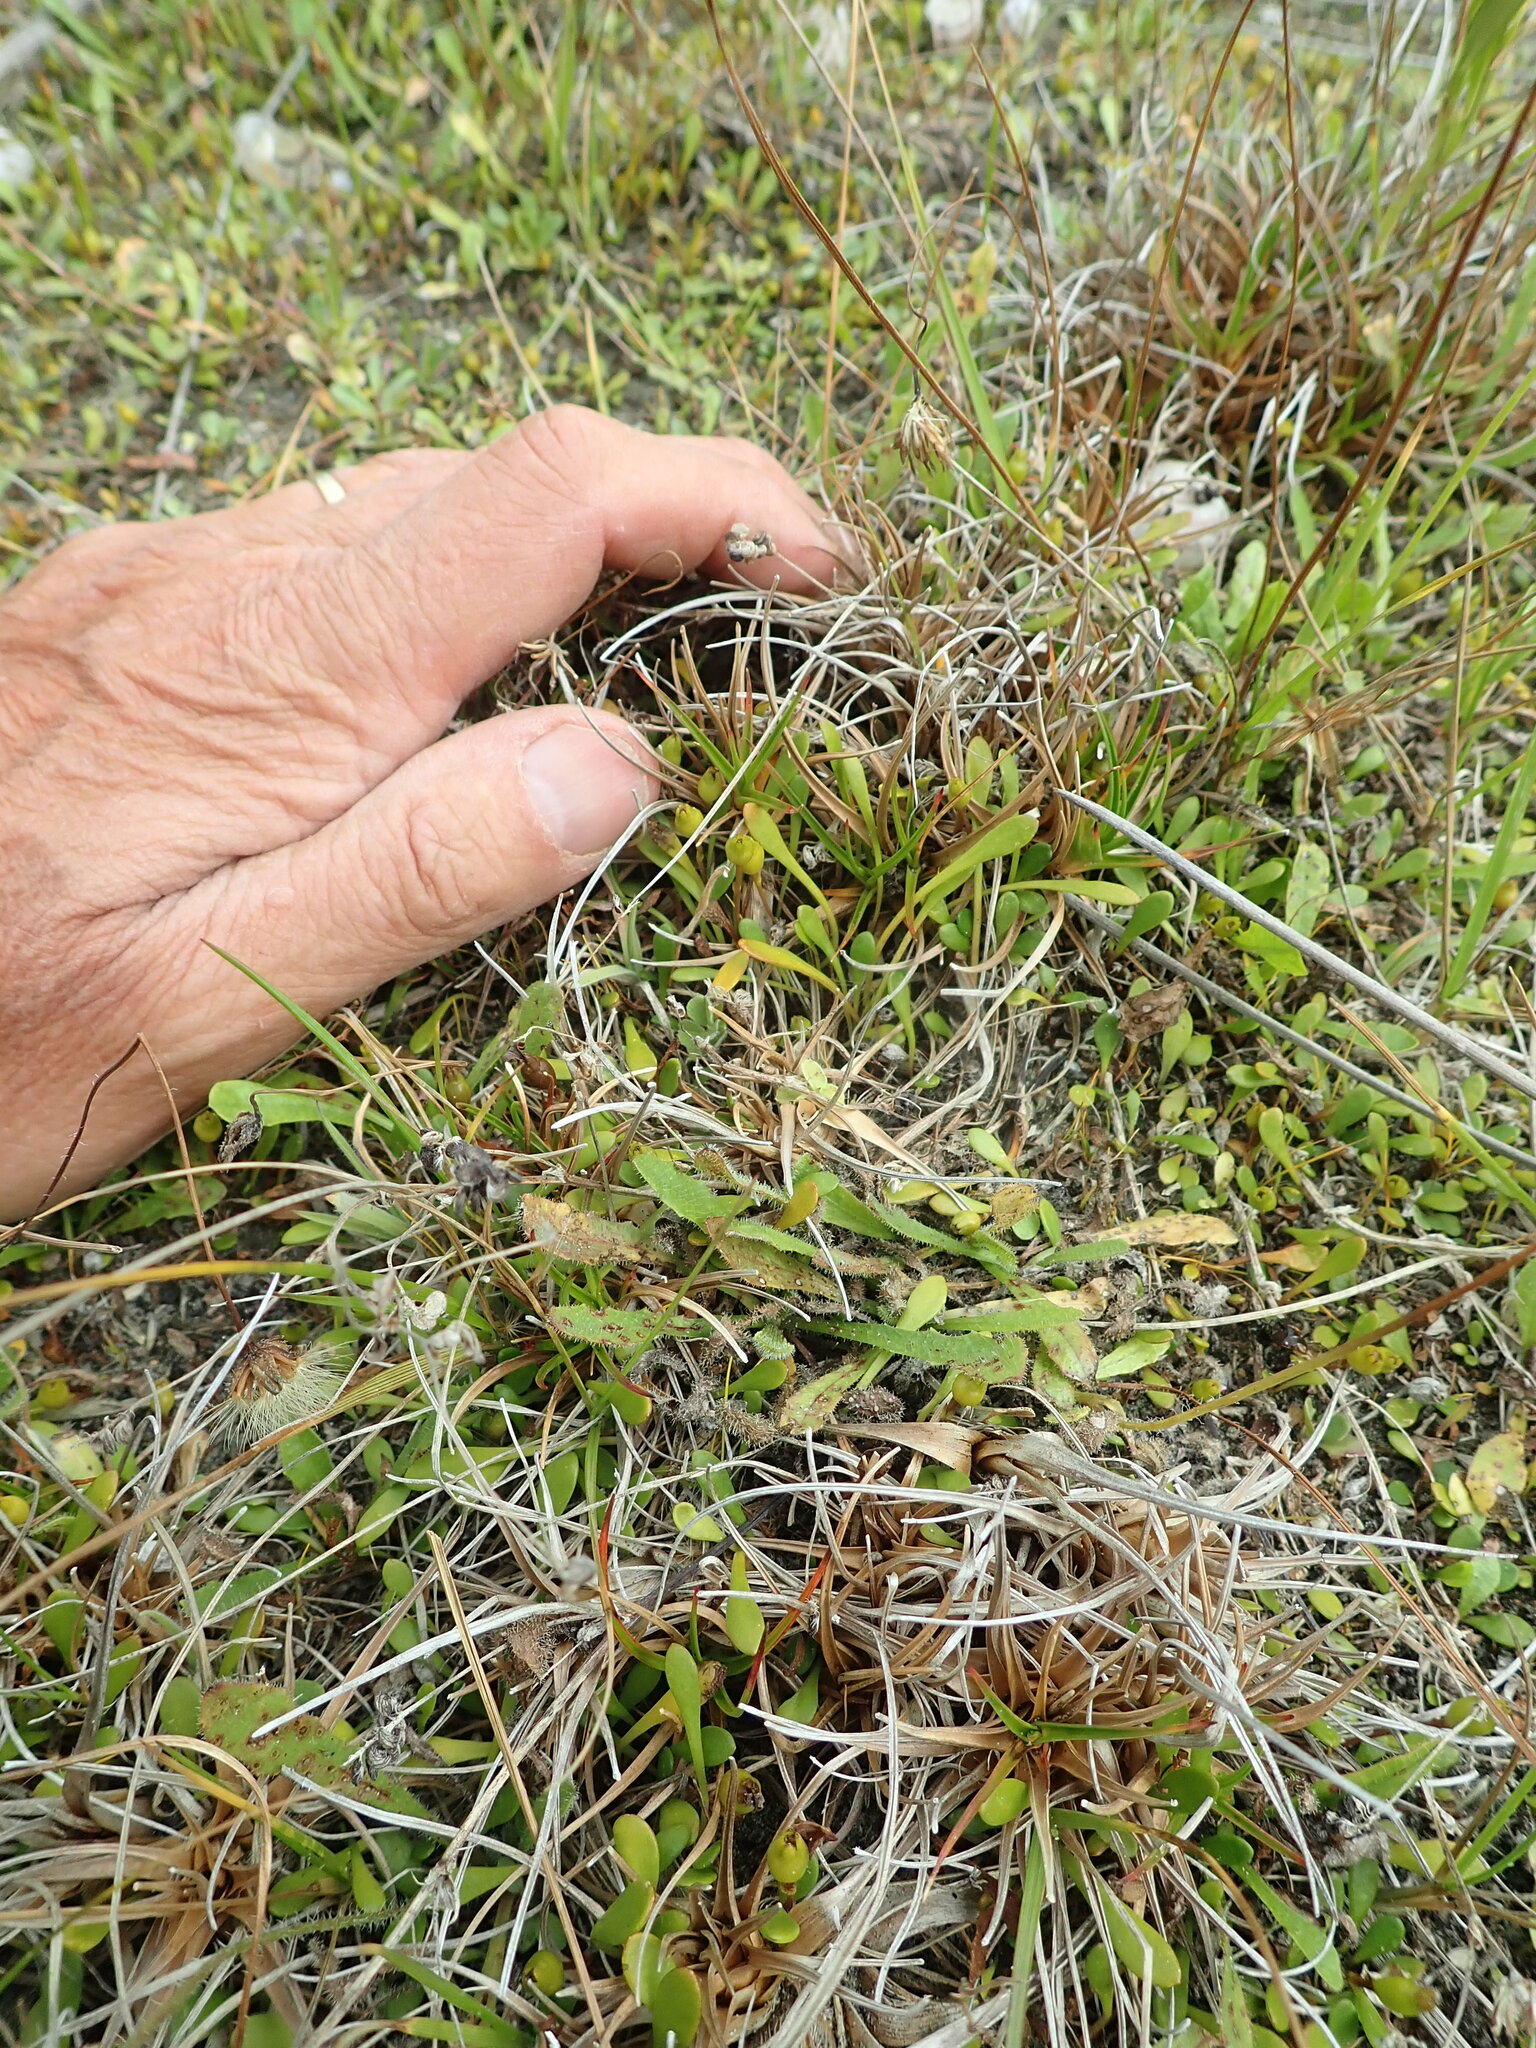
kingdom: Plantae
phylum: Tracheophyta
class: Magnoliopsida
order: Asterales
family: Goodeniaceae
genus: Goodenia
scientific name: Goodenia radicans
